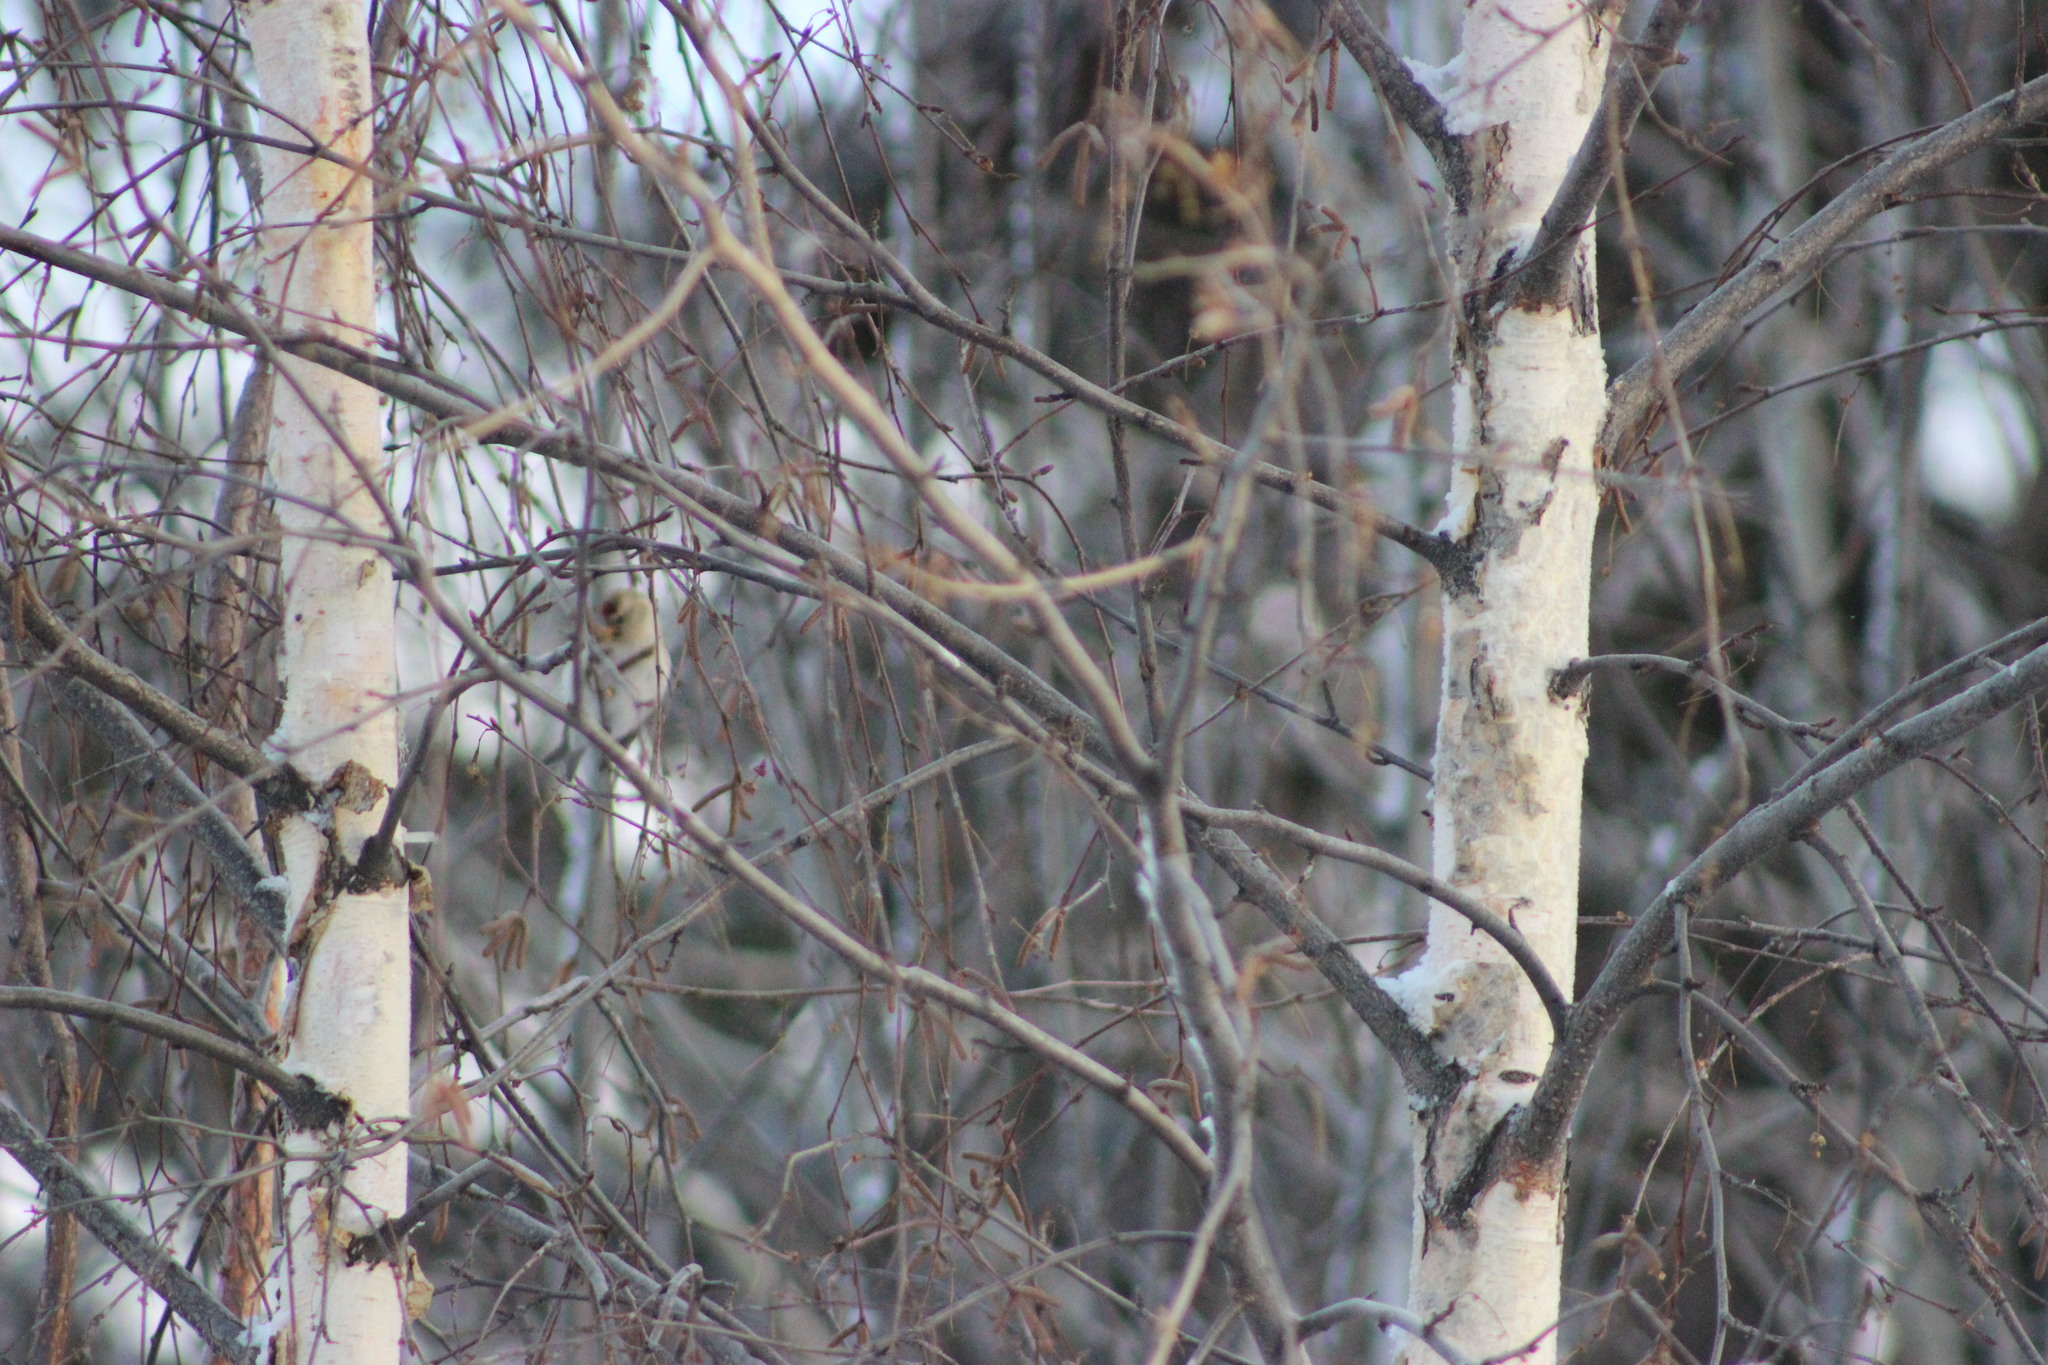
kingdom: Animalia
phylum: Chordata
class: Aves
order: Passeriformes
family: Fringillidae
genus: Acanthis
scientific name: Acanthis flammea
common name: Common redpoll
